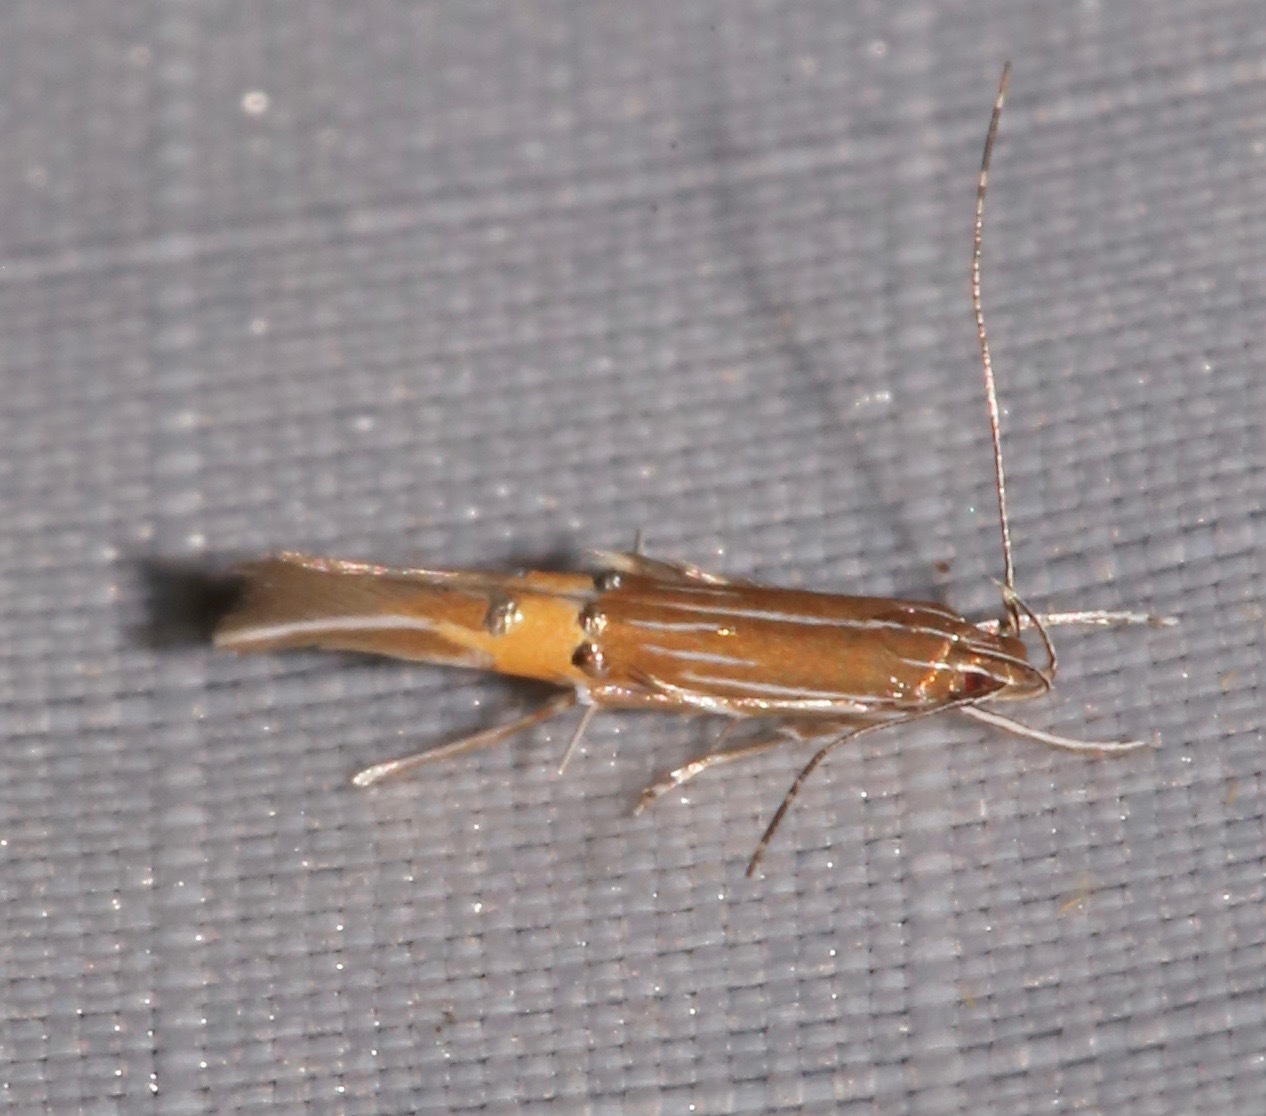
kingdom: Animalia
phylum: Arthropoda
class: Insecta
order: Lepidoptera
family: Cosmopterigidae
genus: Cosmopterix
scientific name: Cosmopterix delicatella
